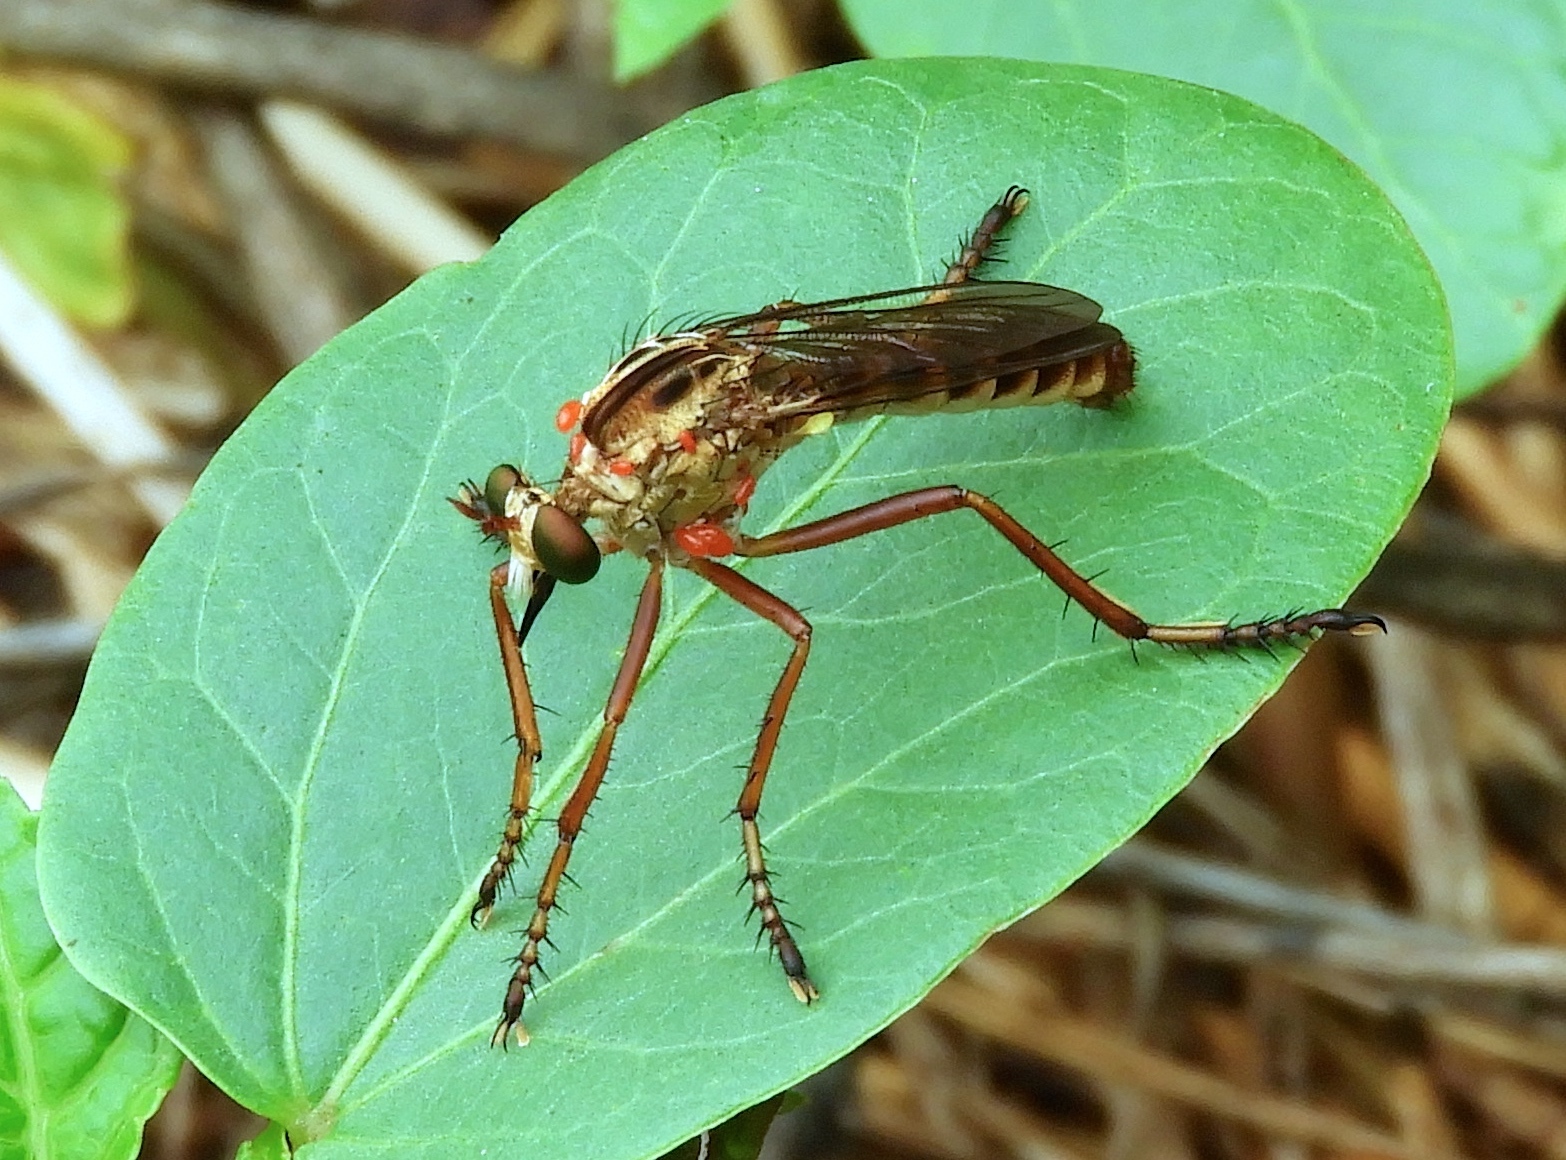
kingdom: Animalia
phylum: Arthropoda
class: Insecta
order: Diptera
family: Asilidae
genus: Diogmites
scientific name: Diogmites
